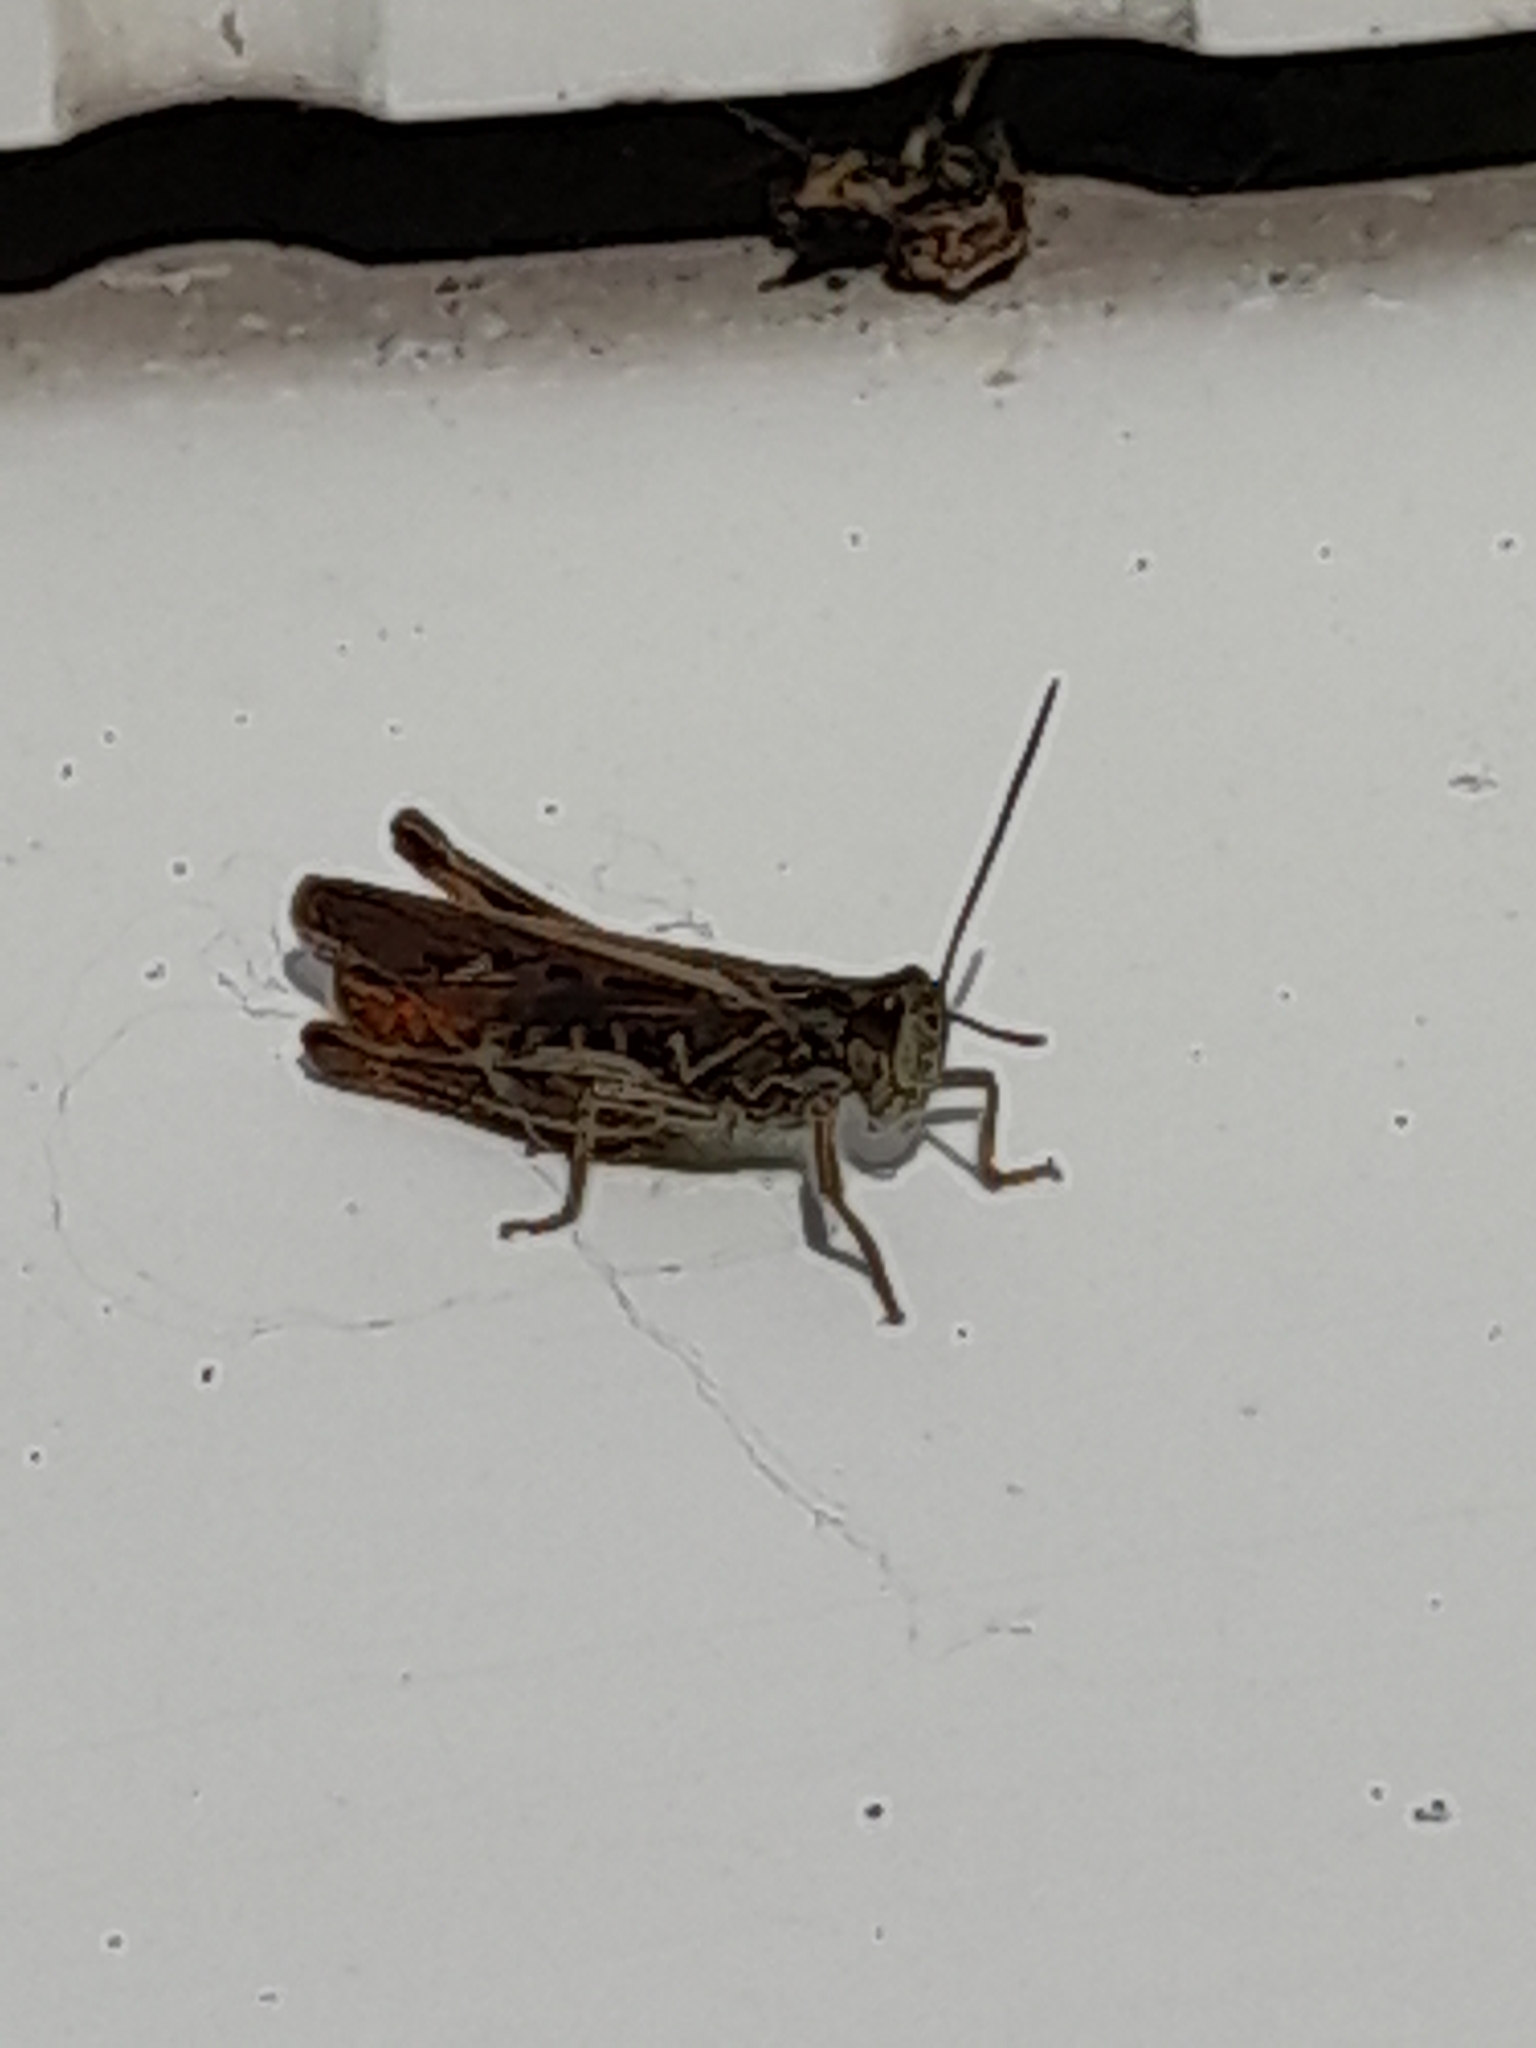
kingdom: Animalia
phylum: Arthropoda
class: Insecta
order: Orthoptera
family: Acrididae
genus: Chorthippus
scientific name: Chorthippus brunneus
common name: Field grasshopper
